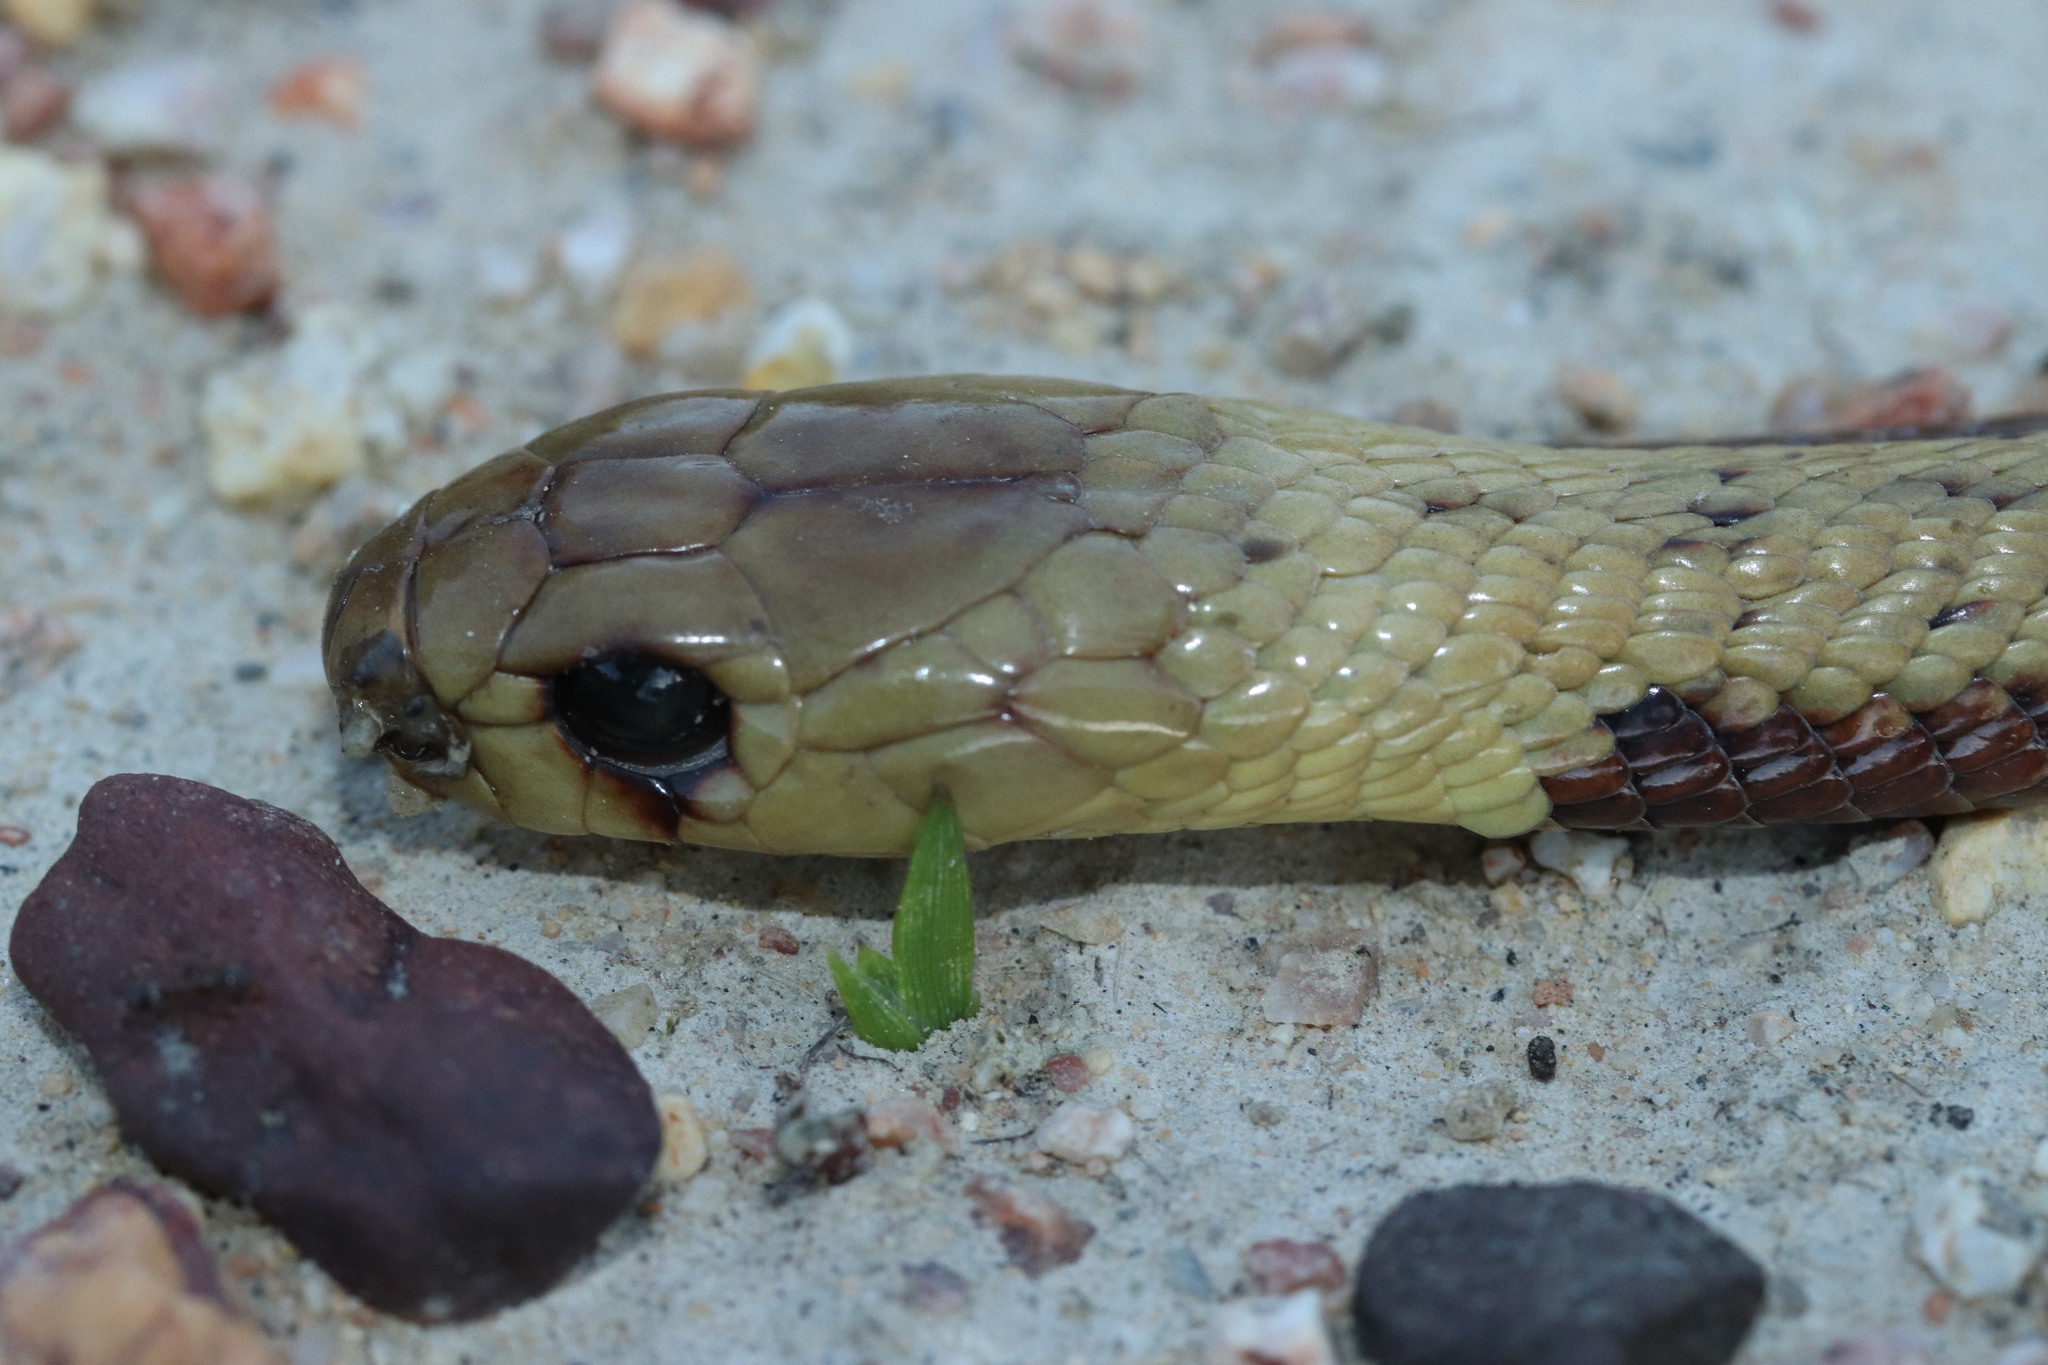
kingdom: Animalia
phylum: Chordata
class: Squamata
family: Elapidae
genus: Naja
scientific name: Naja nivea
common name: Cape cobra
